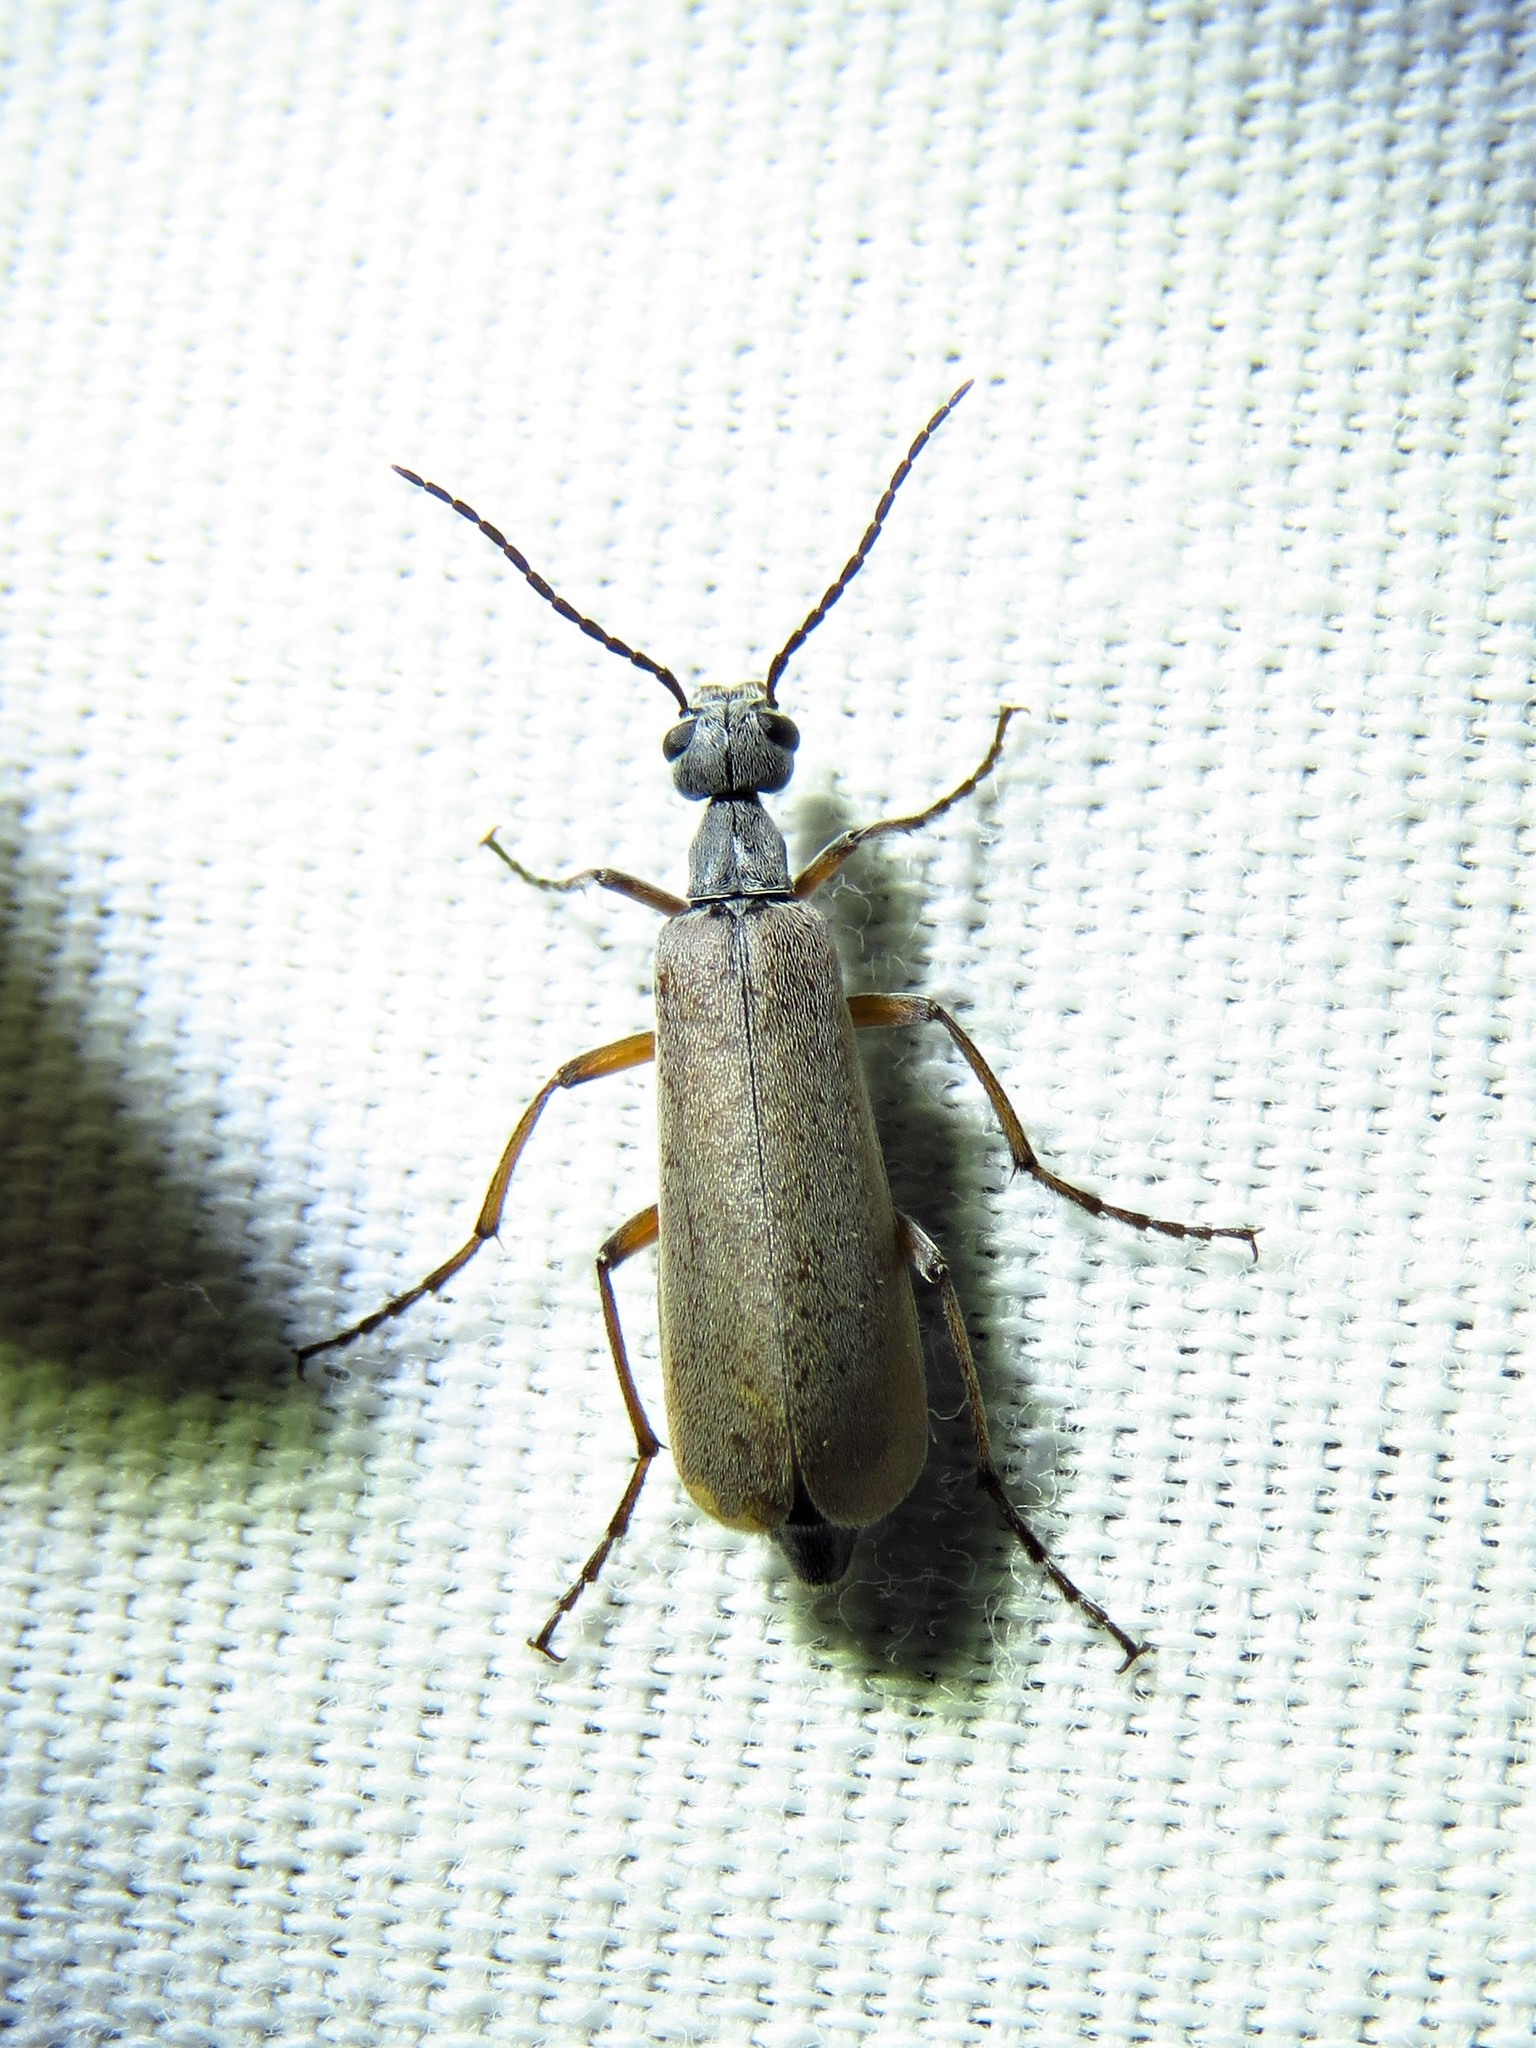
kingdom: Animalia
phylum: Arthropoda
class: Insecta
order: Coleoptera
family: Meloidae
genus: Epicauta
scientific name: Epicauta polingi
